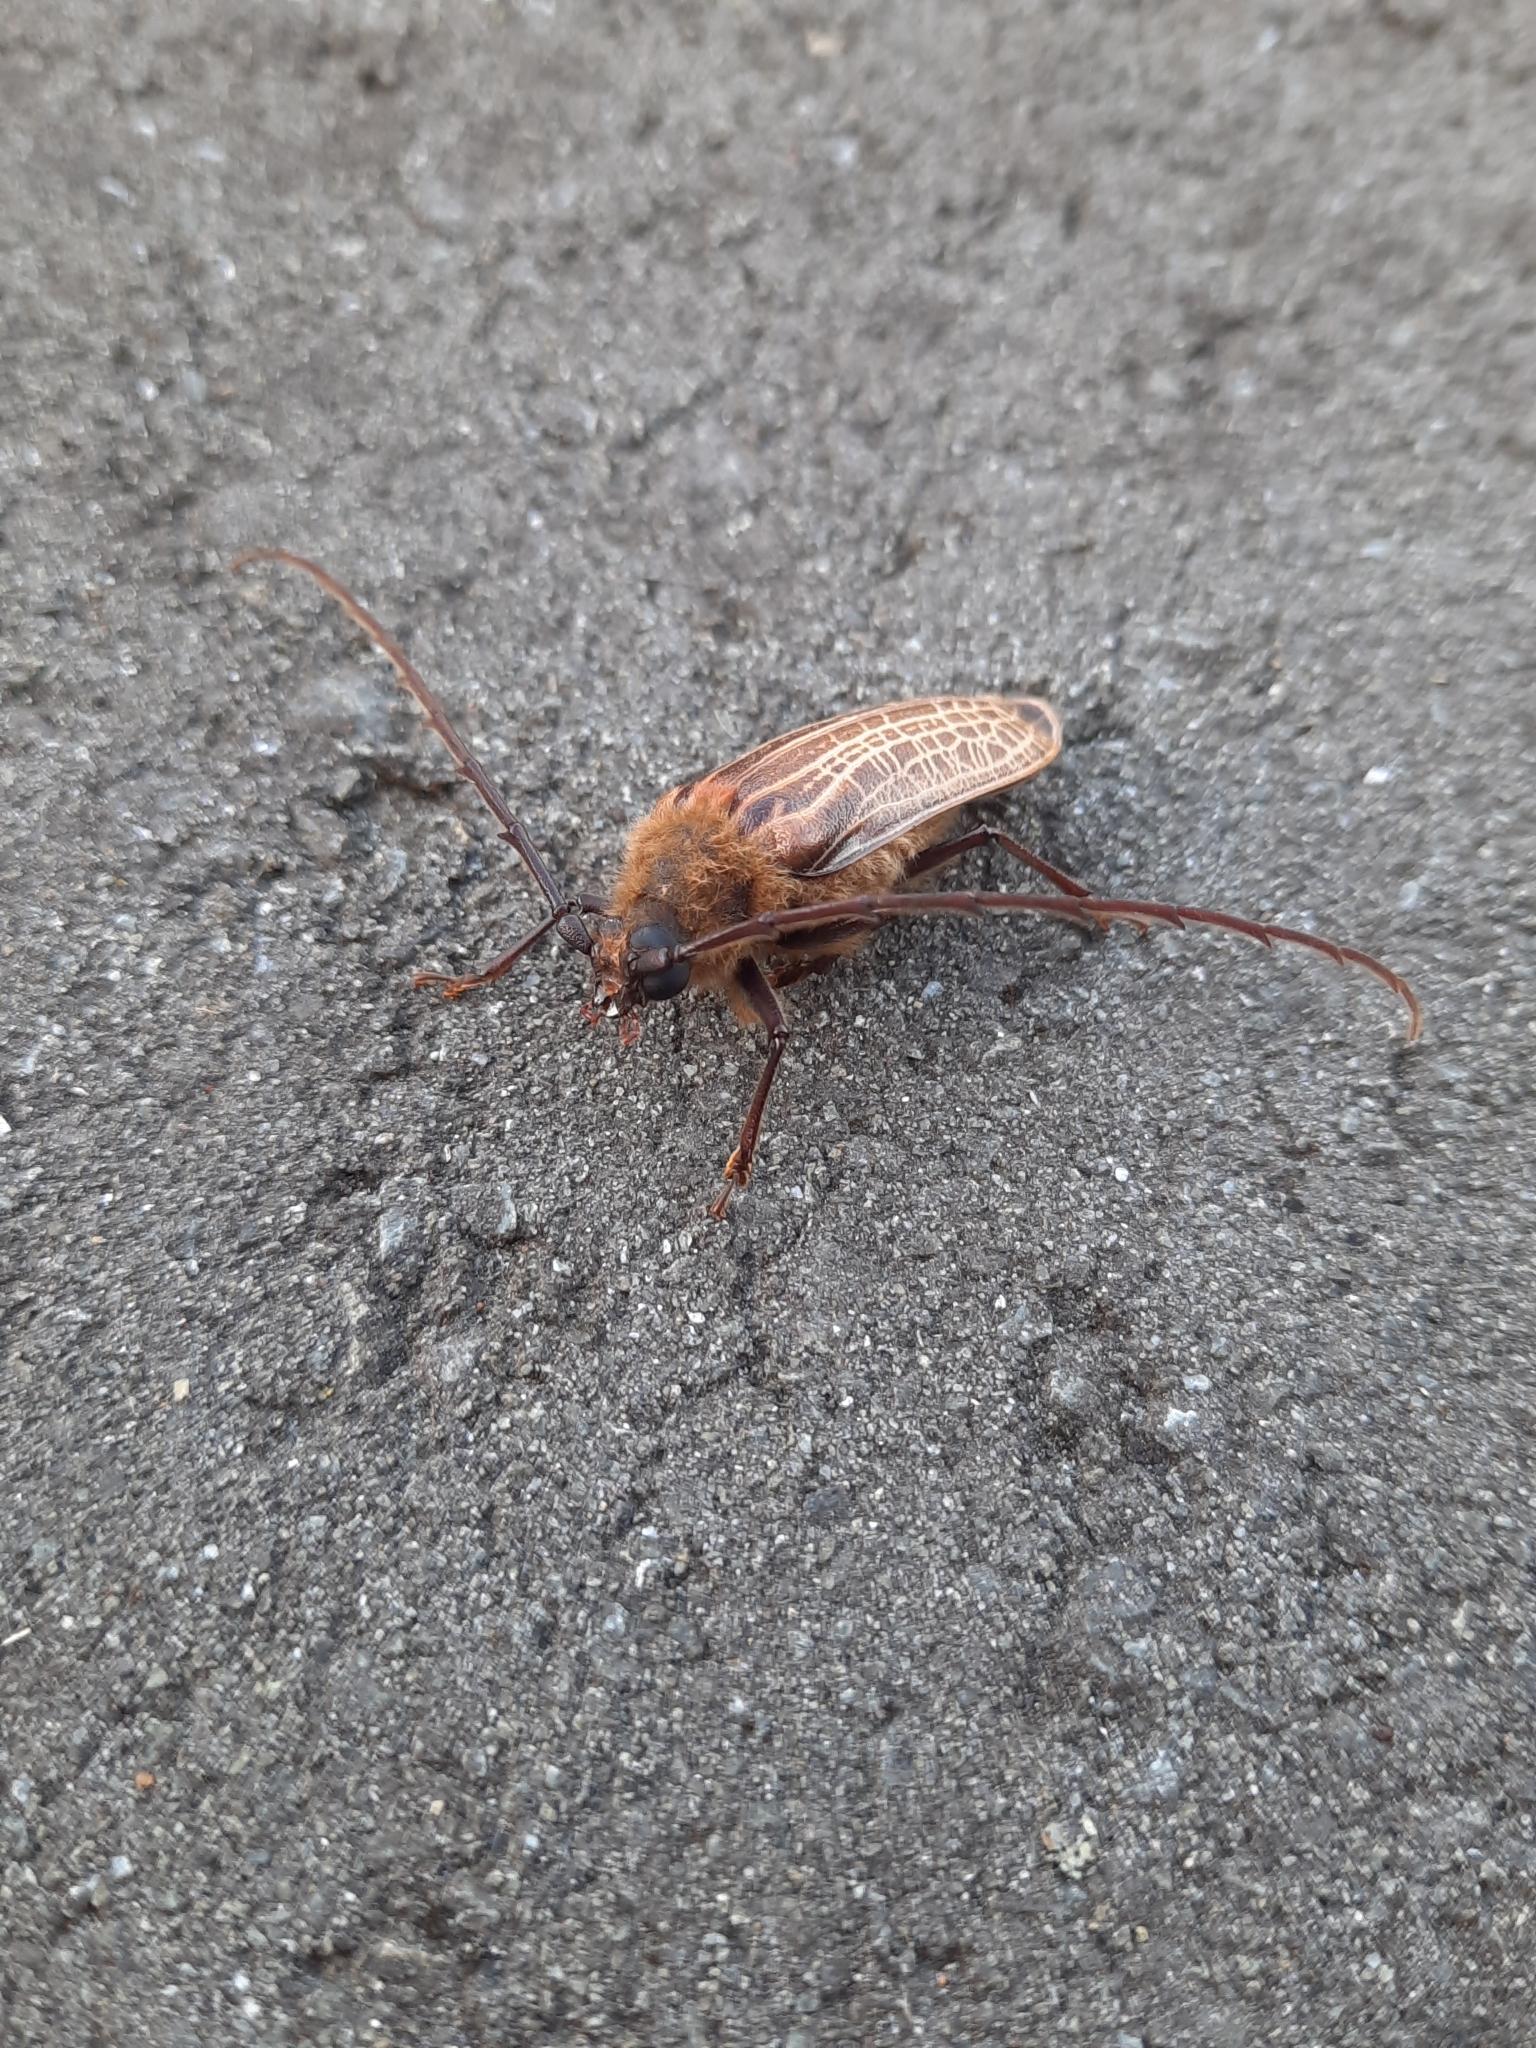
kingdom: Animalia
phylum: Arthropoda
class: Insecta
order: Coleoptera
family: Cerambycidae
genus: Prionoplus
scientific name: Prionoplus reticularis
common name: Huhu beetle
